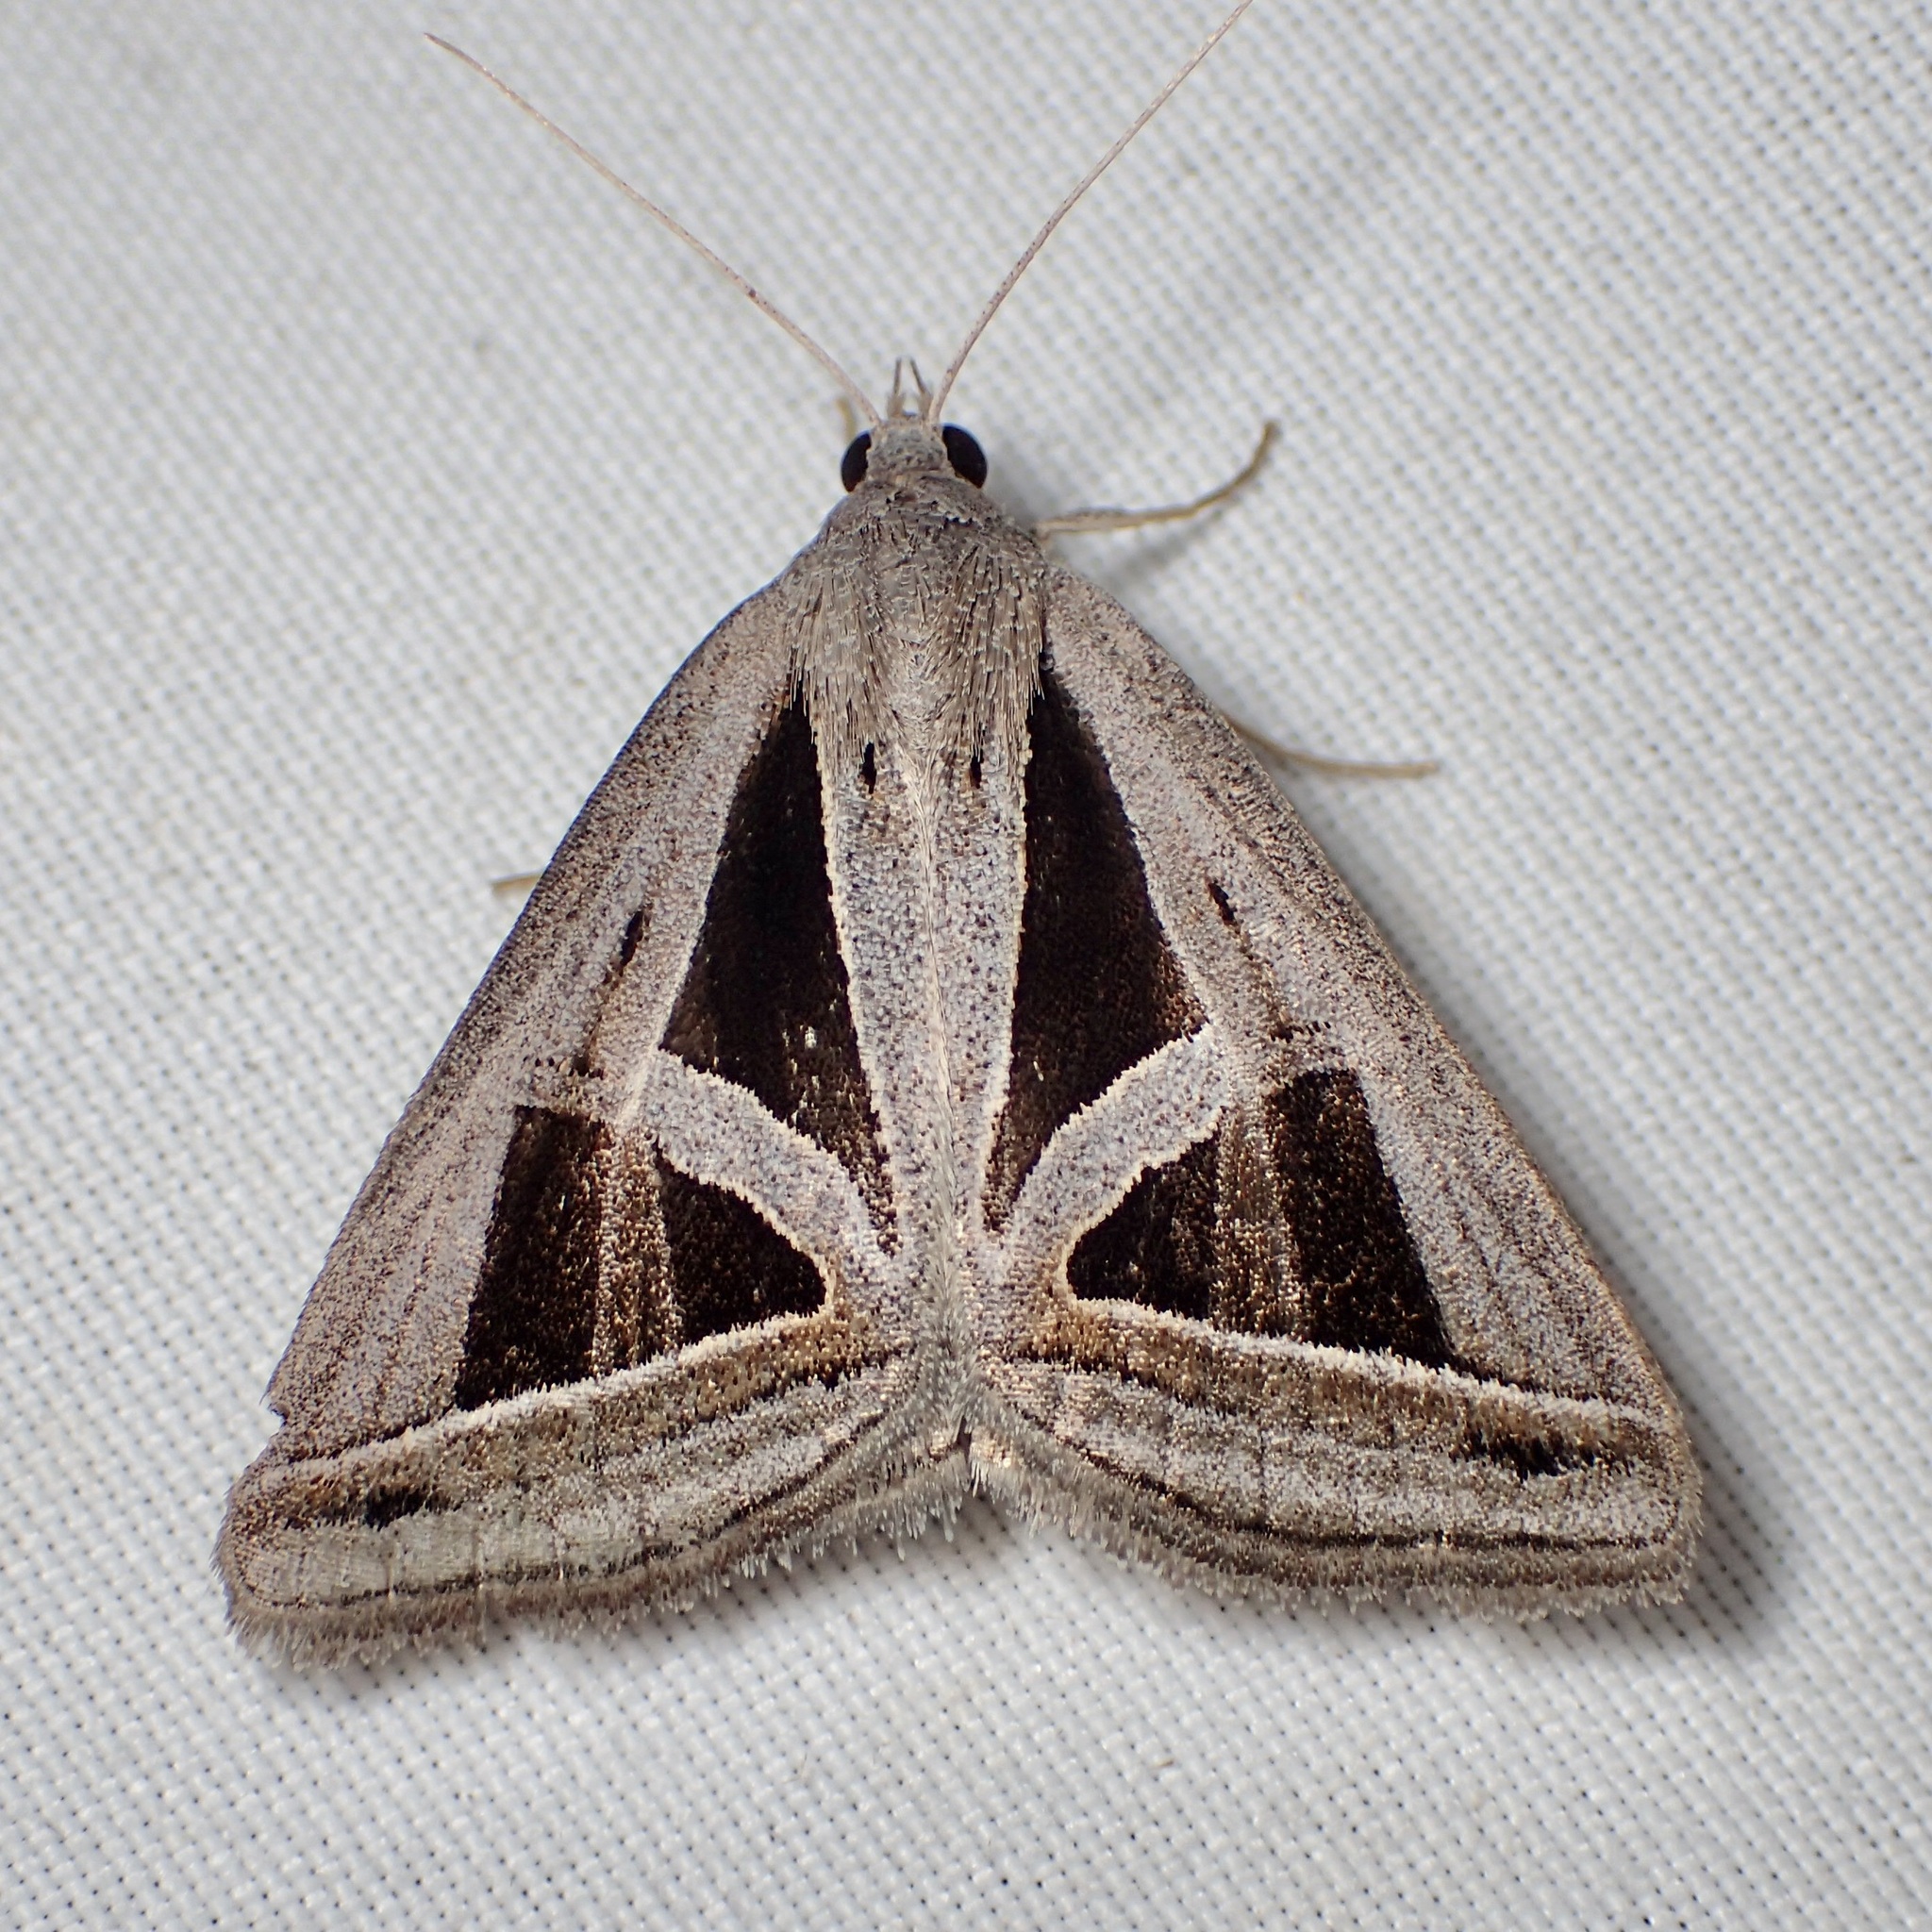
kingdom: Animalia
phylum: Arthropoda
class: Insecta
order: Lepidoptera
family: Erebidae
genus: Callistege
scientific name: Callistege triangula
